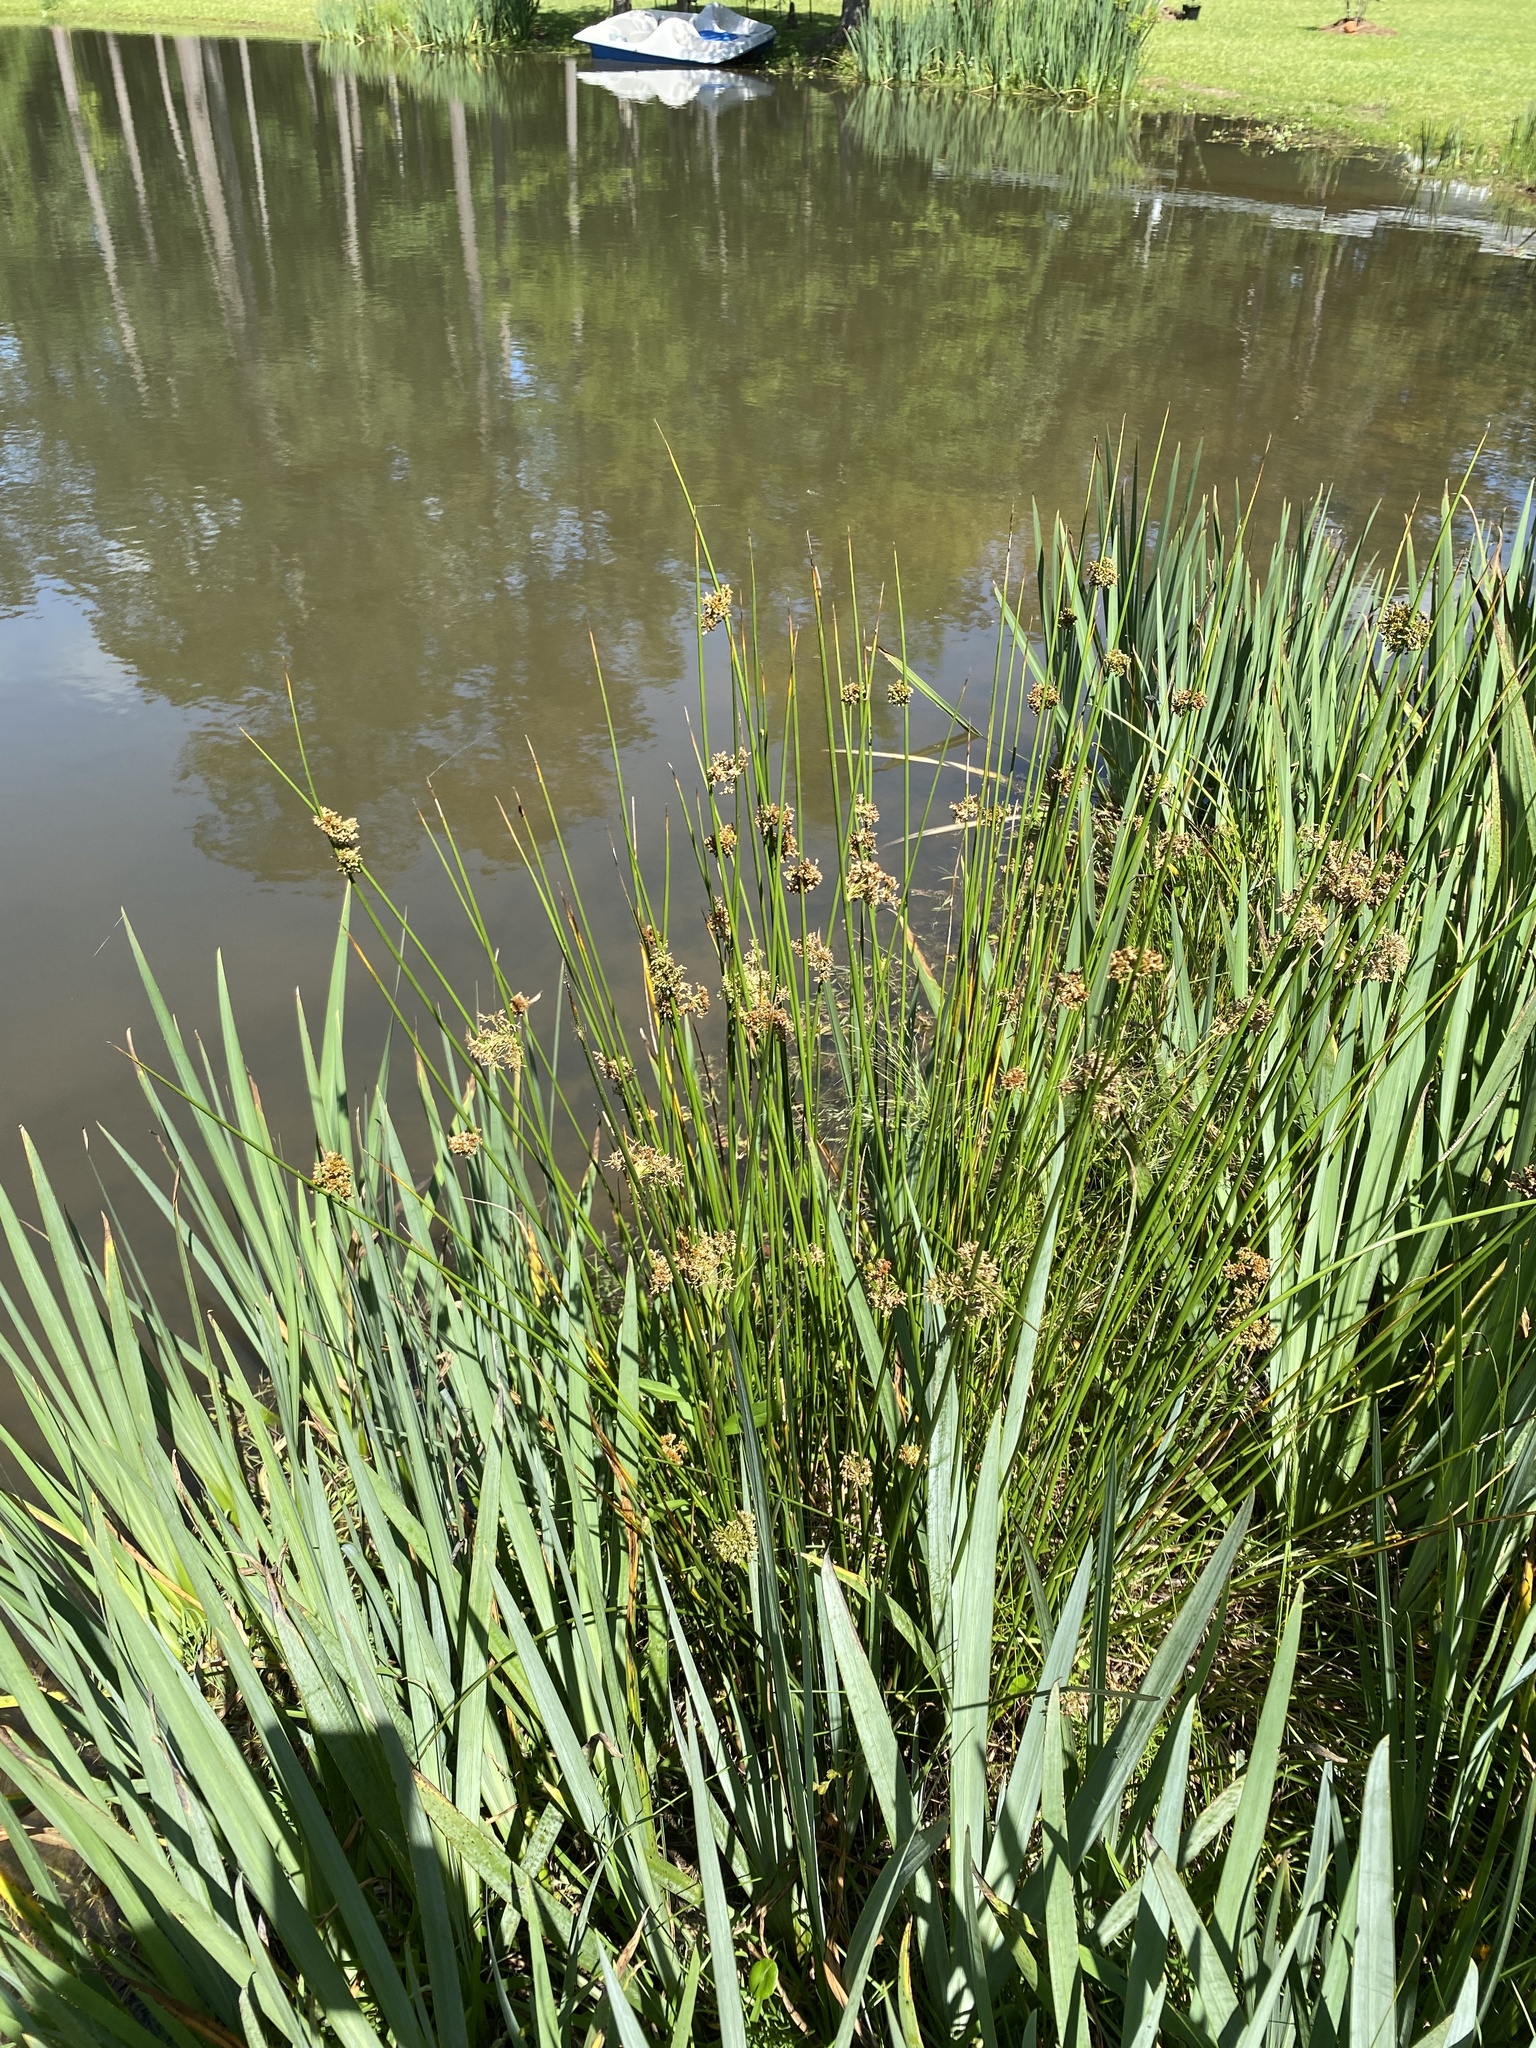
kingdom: Plantae
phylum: Tracheophyta
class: Liliopsida
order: Poales
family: Juncaceae
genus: Juncus
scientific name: Juncus effusus
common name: Soft rush
